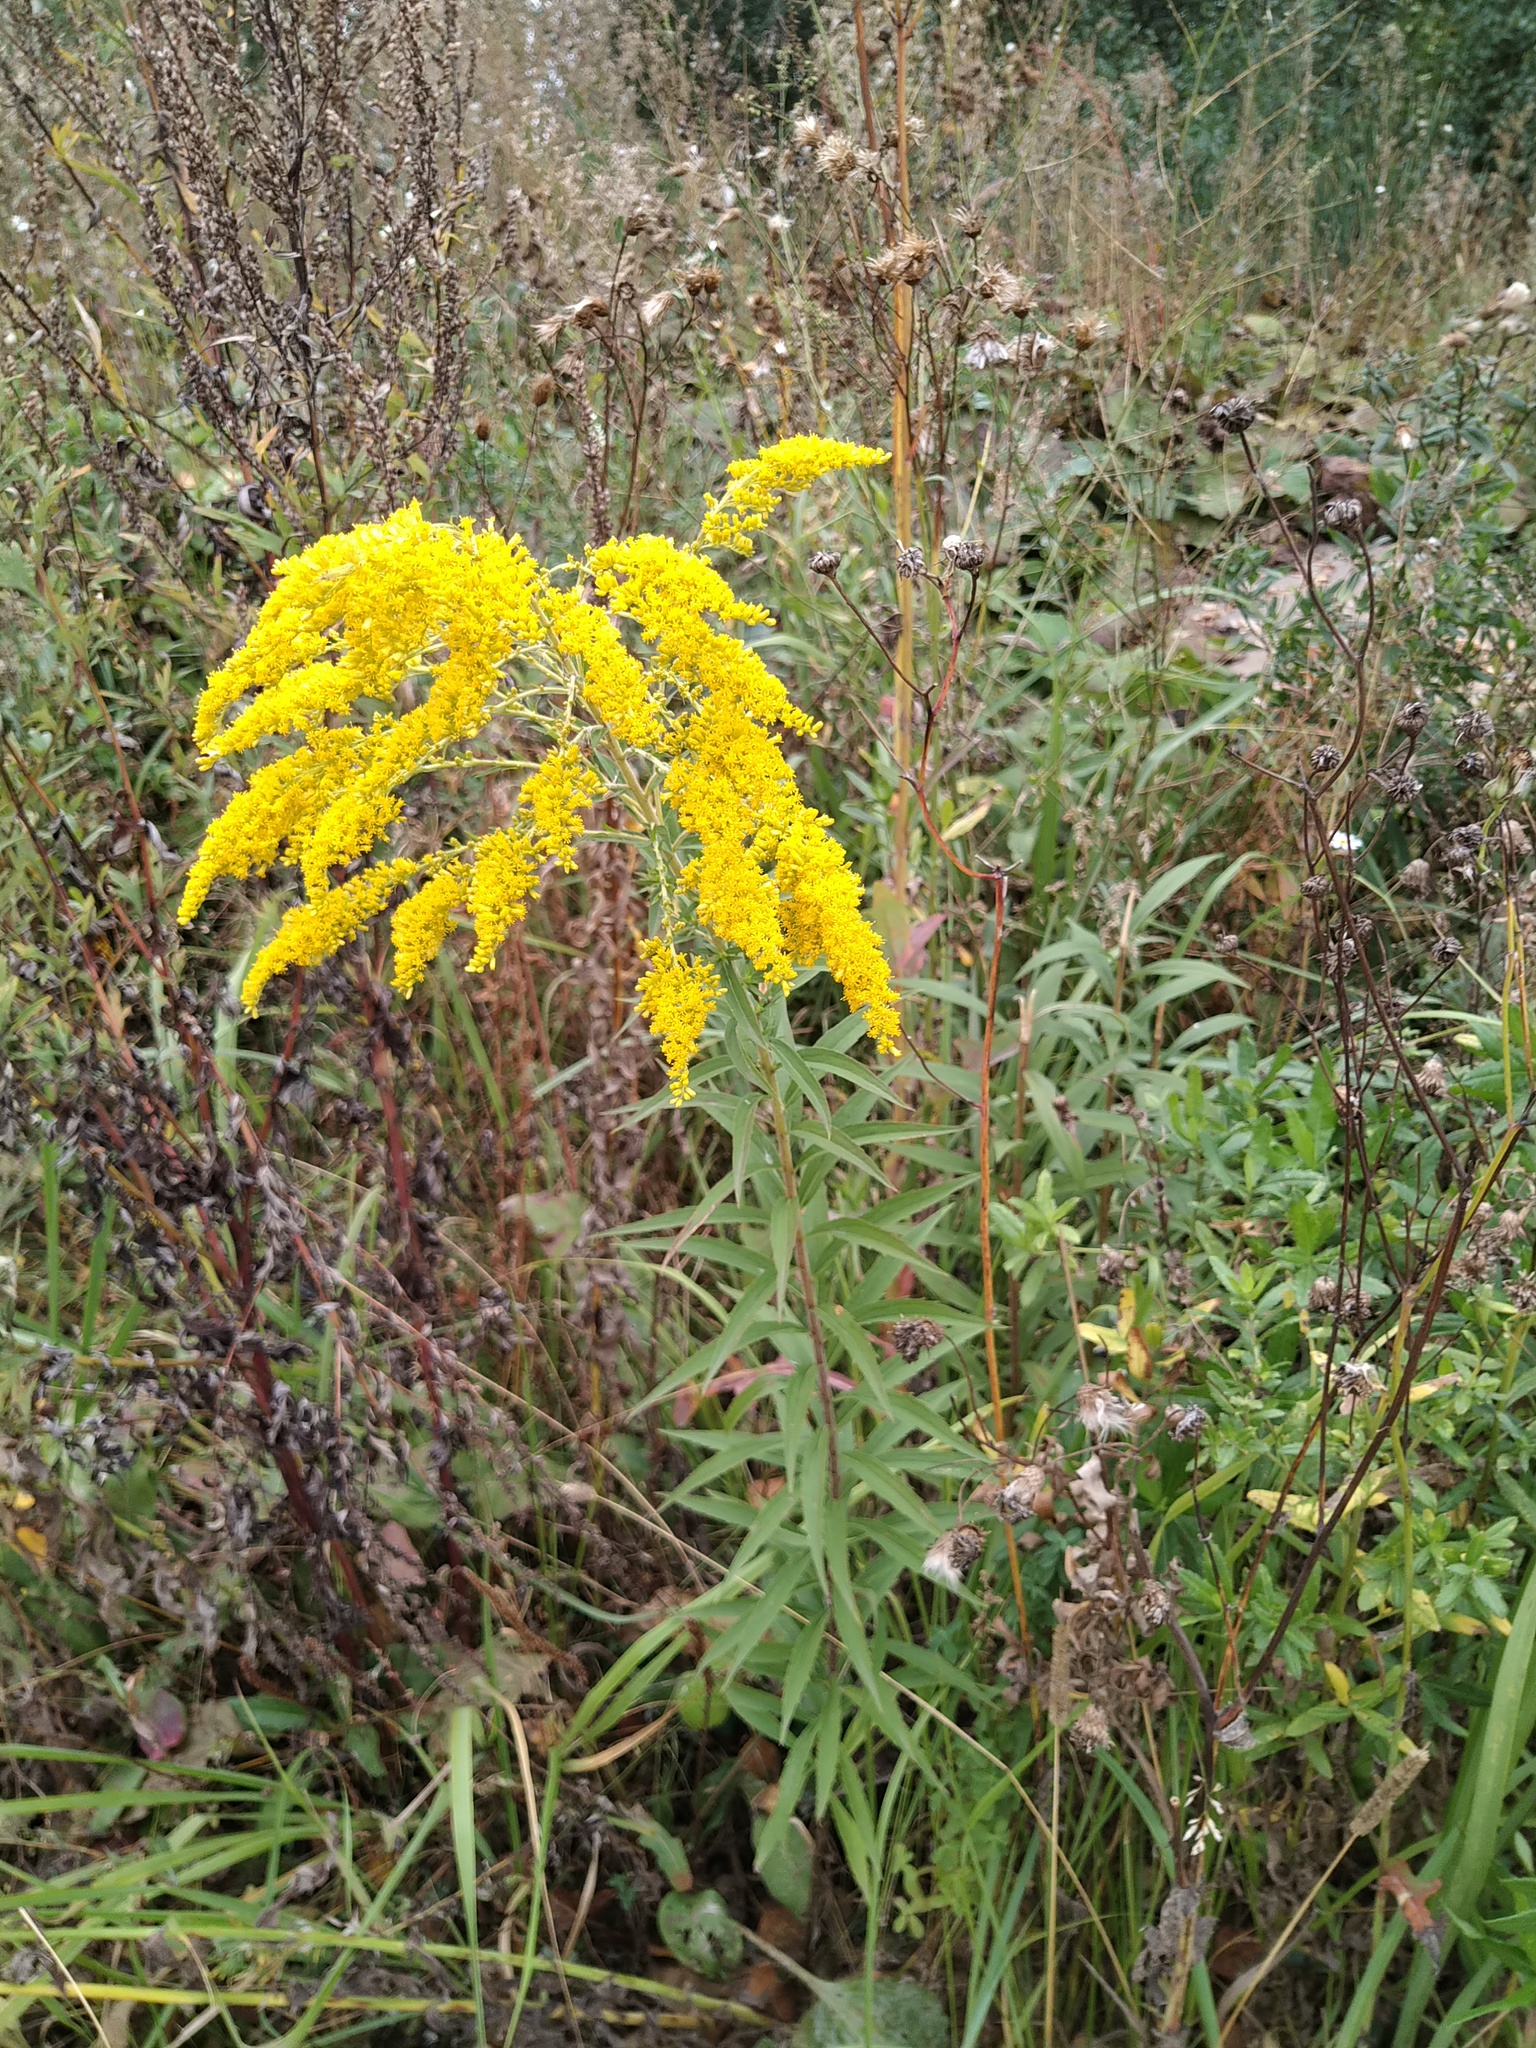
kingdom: Plantae
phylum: Tracheophyta
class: Magnoliopsida
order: Asterales
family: Asteraceae
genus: Solidago
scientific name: Solidago canadensis
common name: Canada goldenrod
